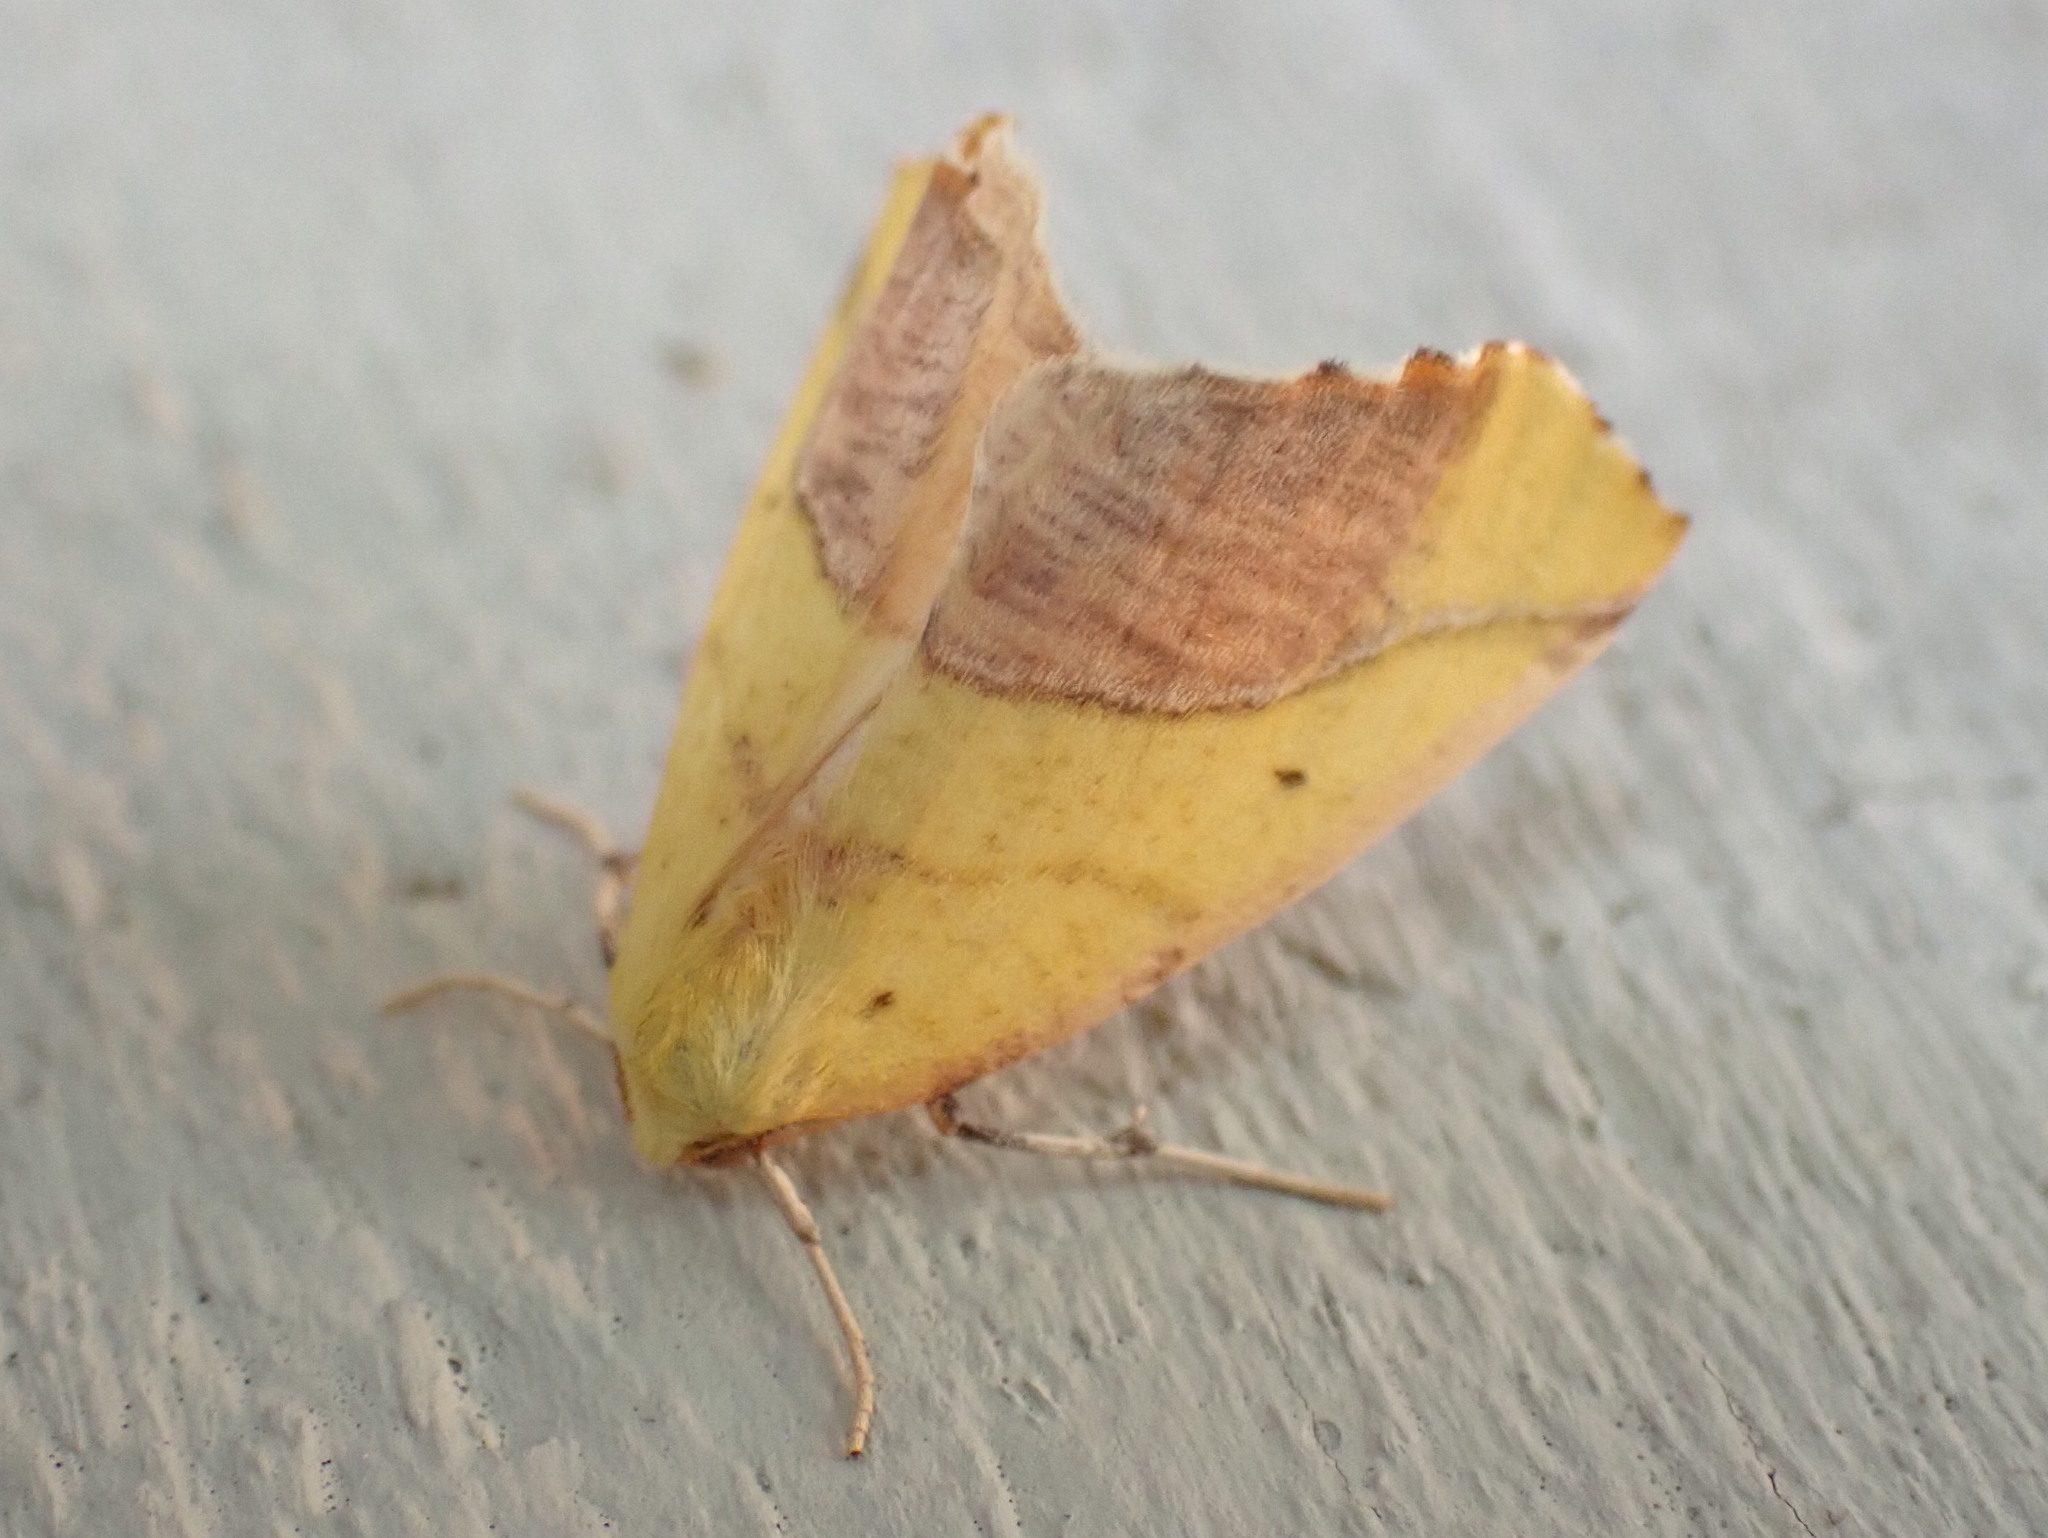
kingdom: Animalia
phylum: Arthropoda
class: Insecta
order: Lepidoptera
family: Geometridae
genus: Sicya
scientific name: Sicya macularia
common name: Sharp-lined yellow
